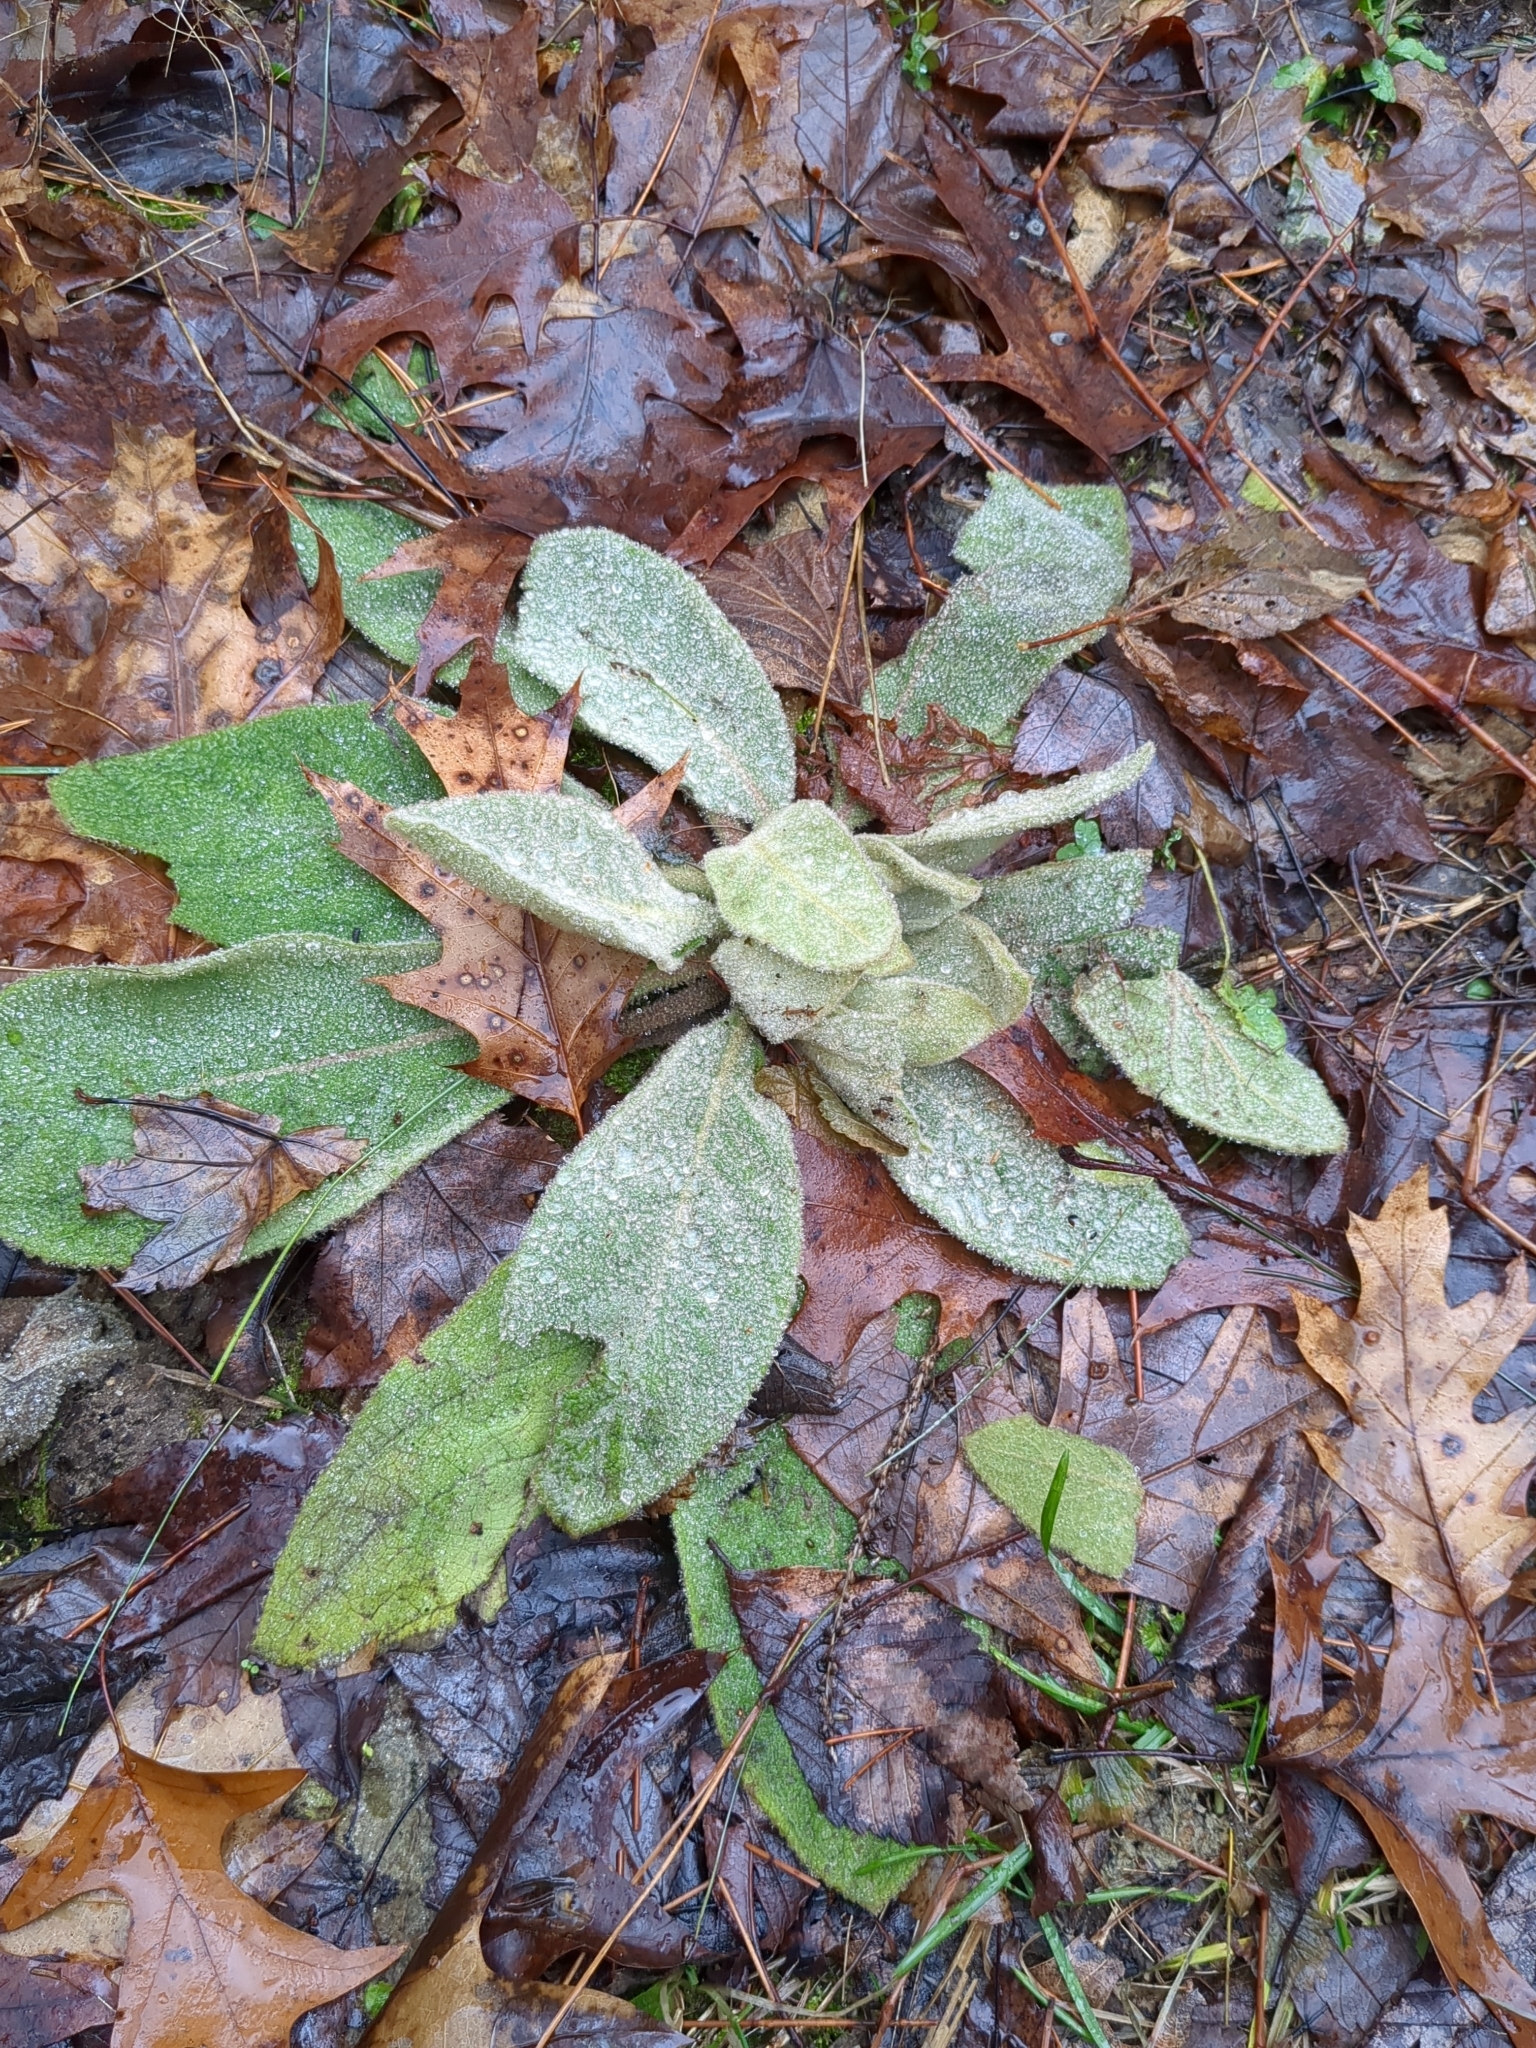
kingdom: Plantae
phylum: Tracheophyta
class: Magnoliopsida
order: Lamiales
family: Scrophulariaceae
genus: Verbascum
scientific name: Verbascum thapsus
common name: Common mullein
